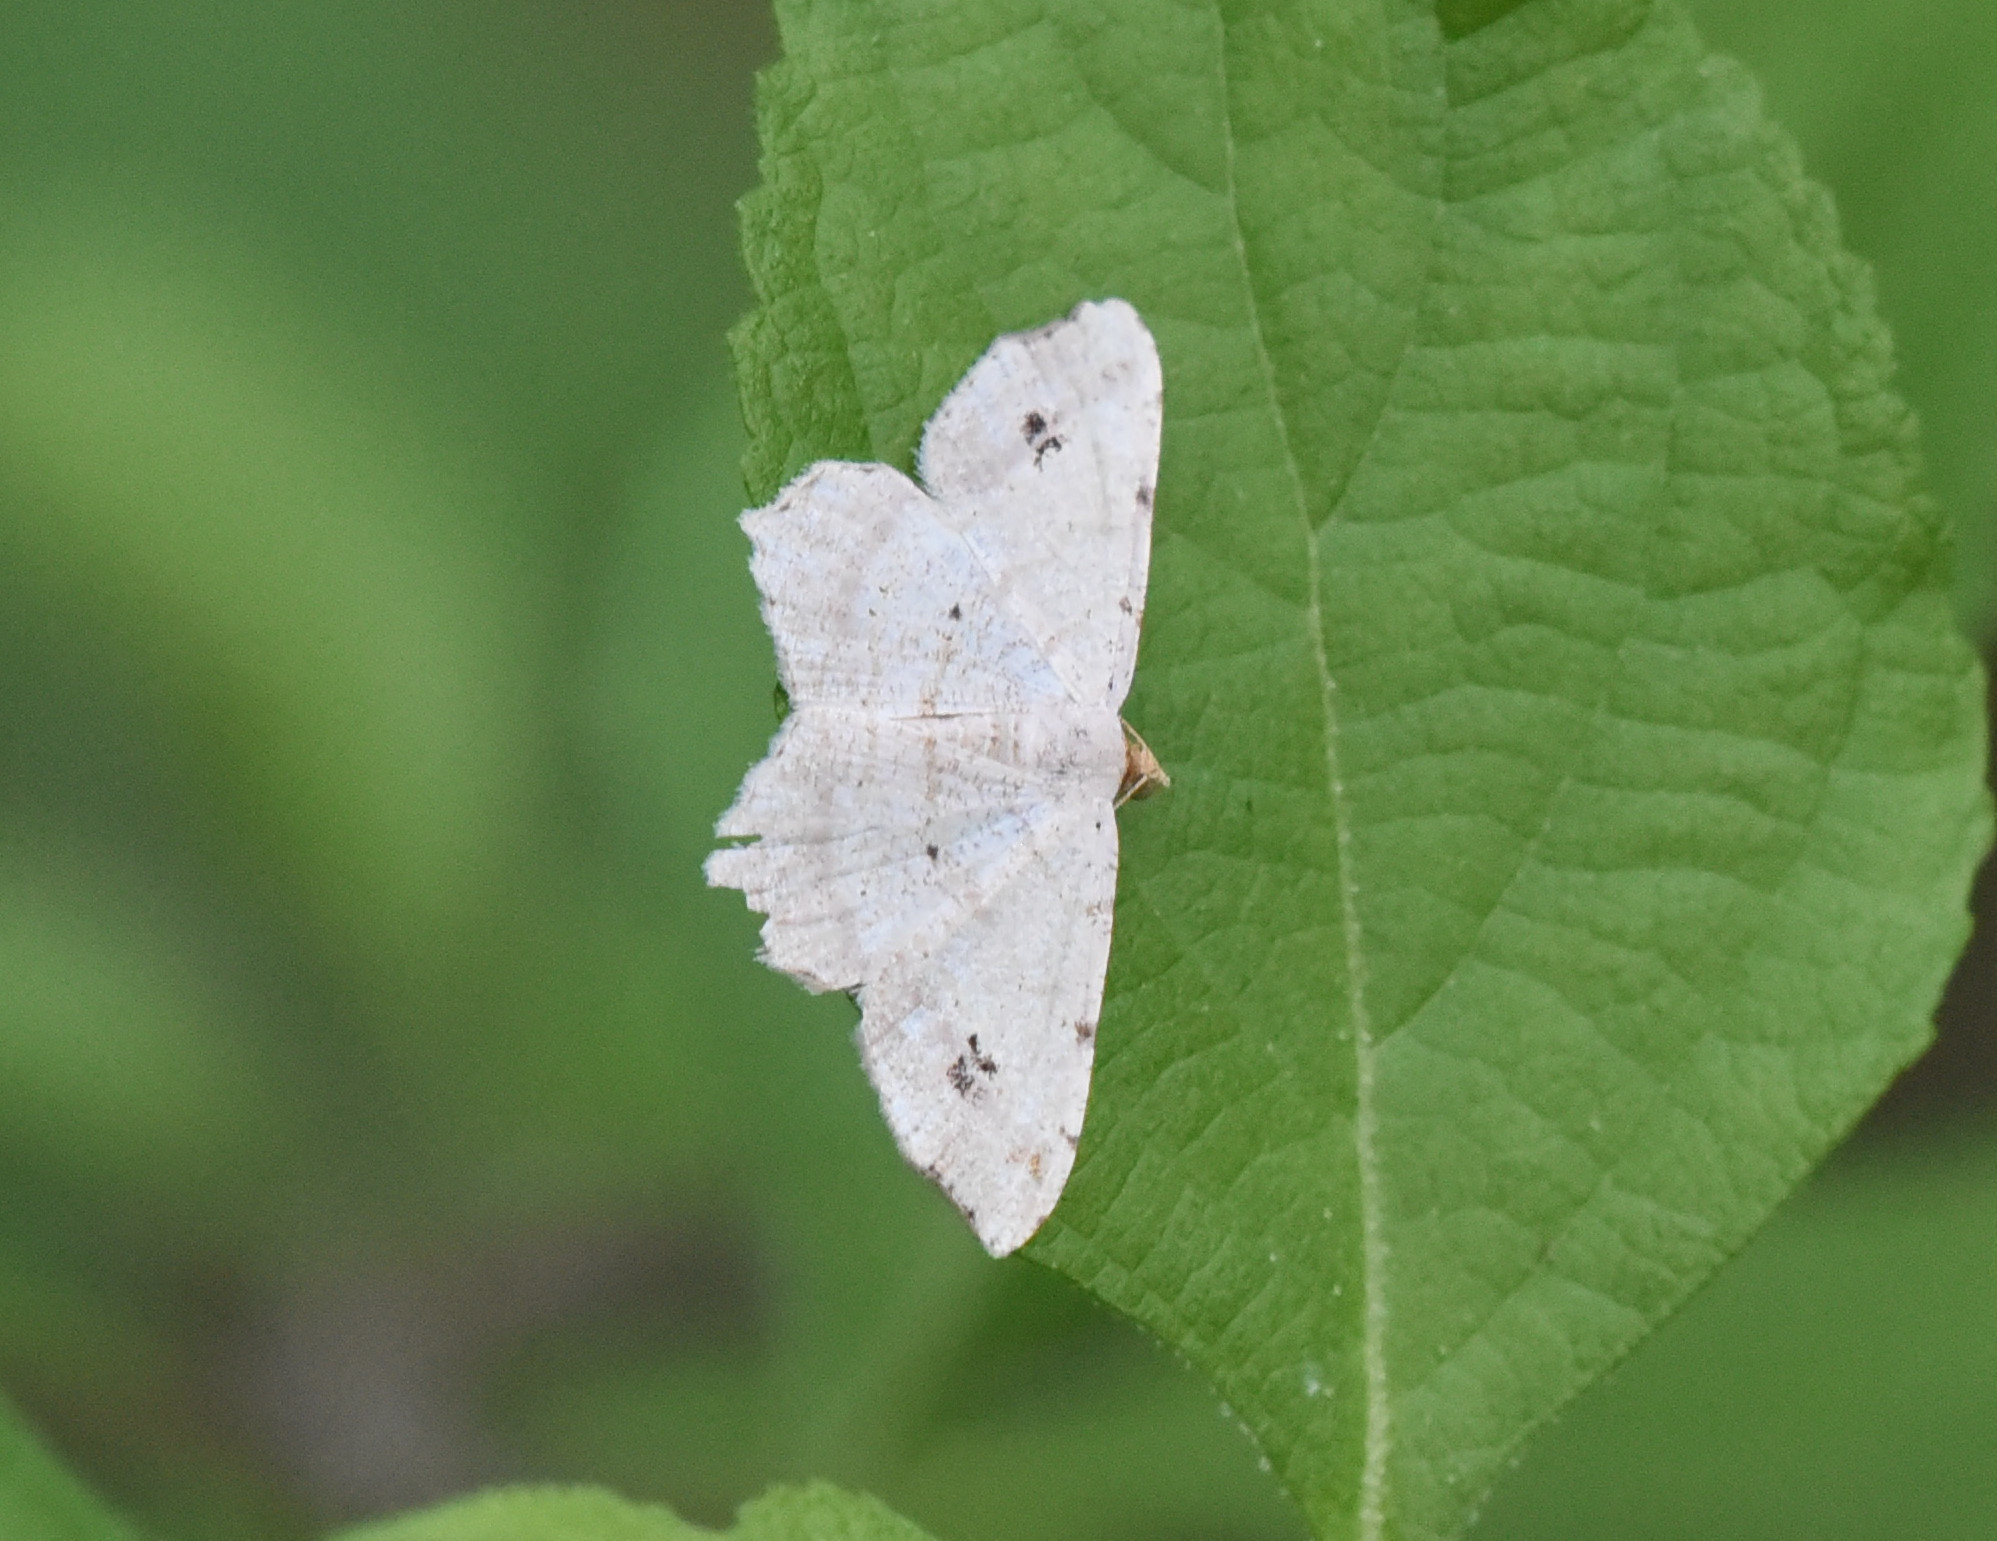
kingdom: Animalia
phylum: Arthropoda
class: Insecta
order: Lepidoptera
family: Geometridae
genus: Macaria
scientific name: Macaria aemulataria
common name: Common angle
